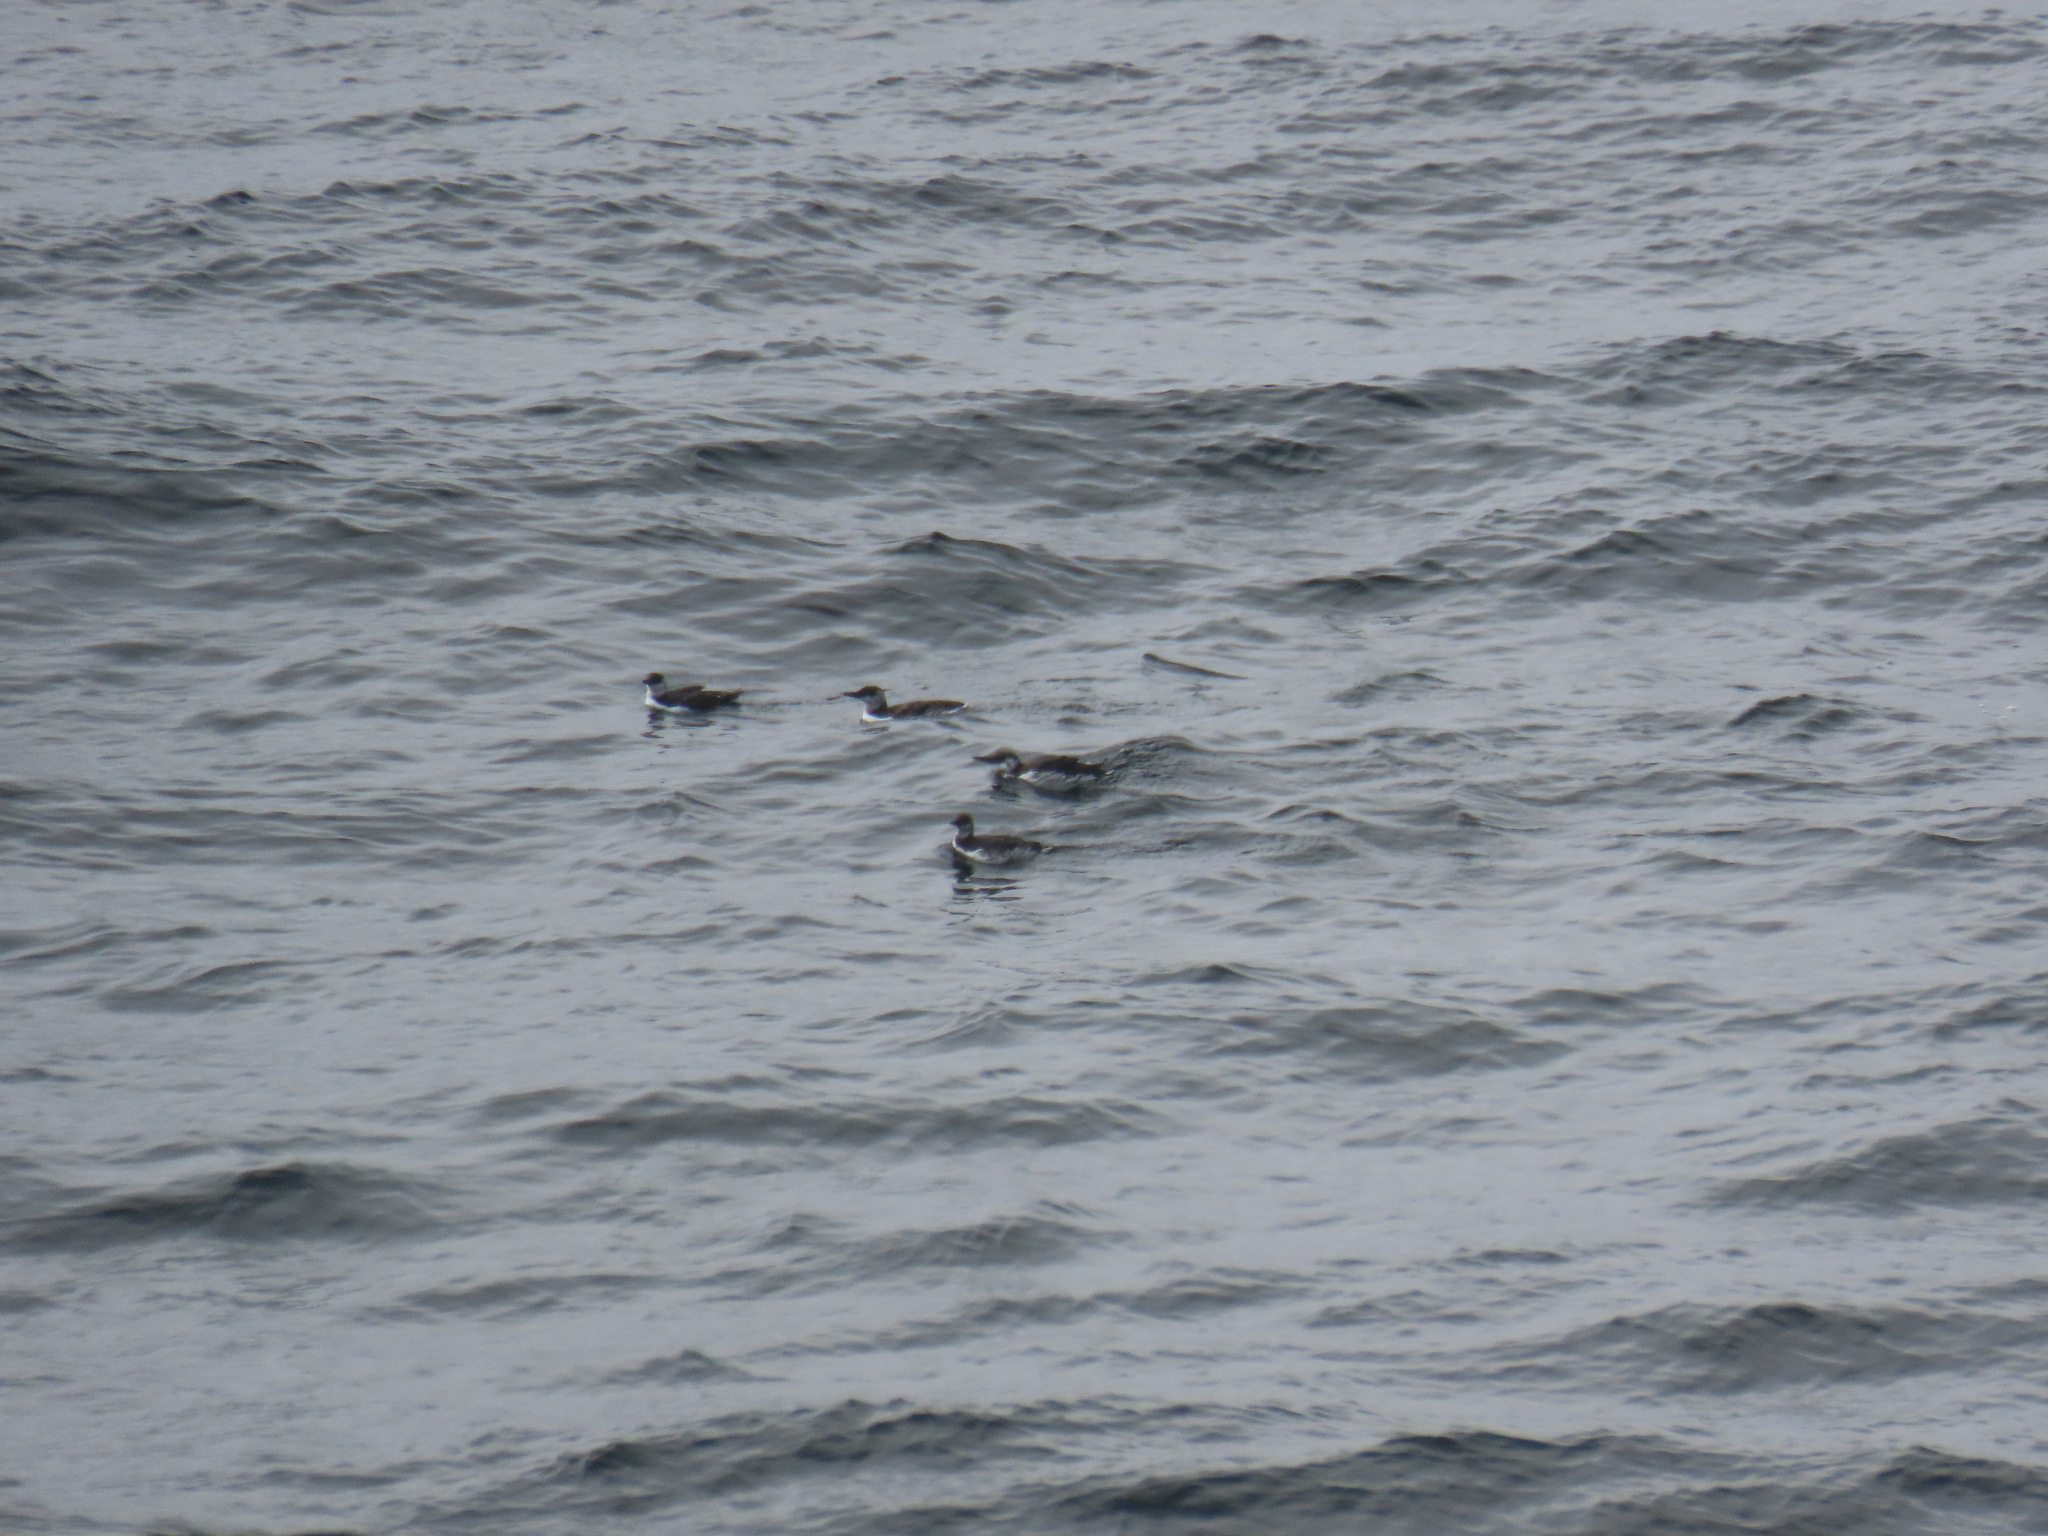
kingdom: Animalia
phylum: Chordata
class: Aves
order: Charadriiformes
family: Alcidae
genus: Uria
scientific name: Uria aalge
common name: Common murre
